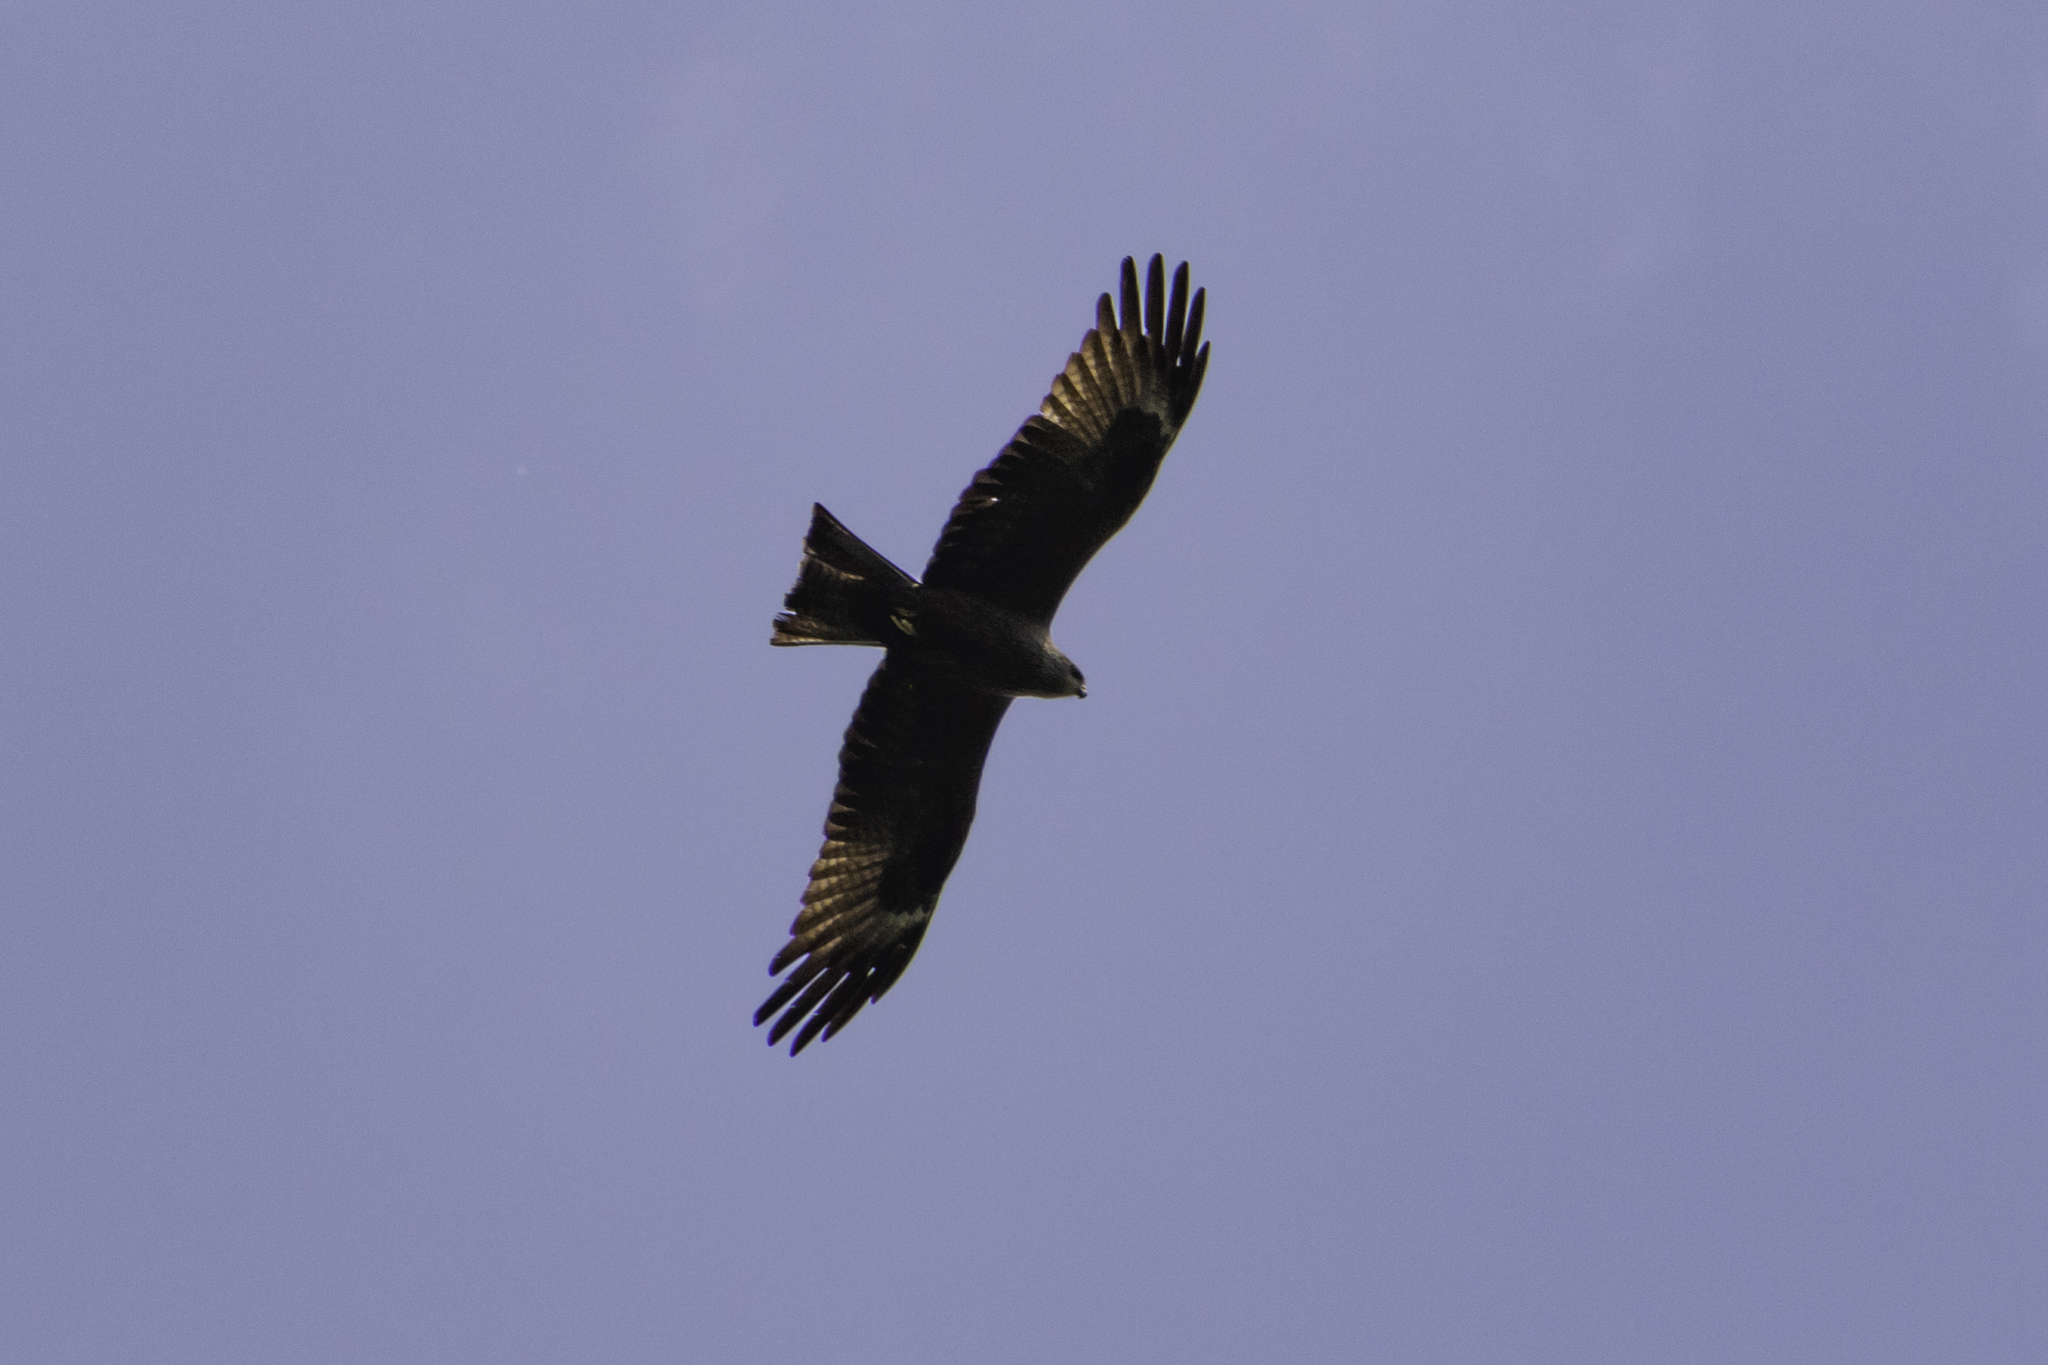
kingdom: Animalia
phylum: Chordata
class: Aves
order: Accipitriformes
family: Accipitridae
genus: Milvus
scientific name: Milvus migrans
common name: Black kite
